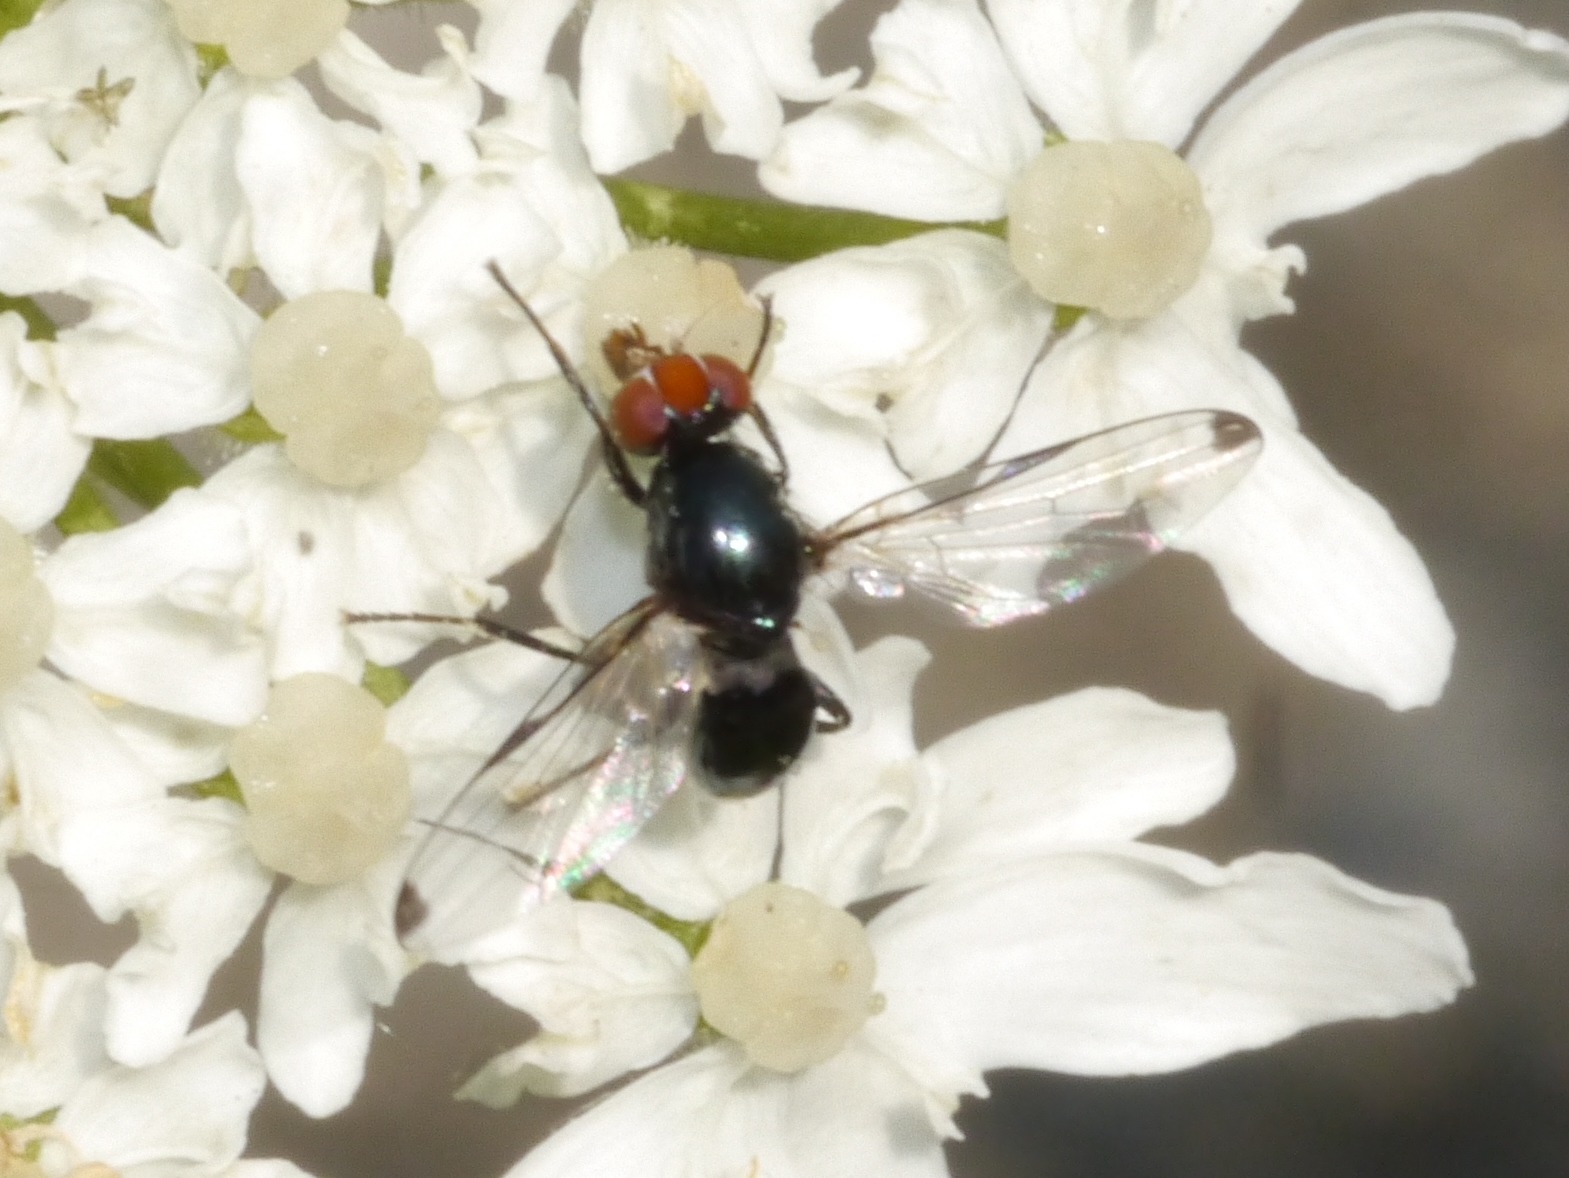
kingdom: Animalia
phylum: Arthropoda
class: Insecta
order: Diptera
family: Ulidiidae
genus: Seioptera
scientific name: Seioptera vibrans
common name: Dark-tipped wingwaver
